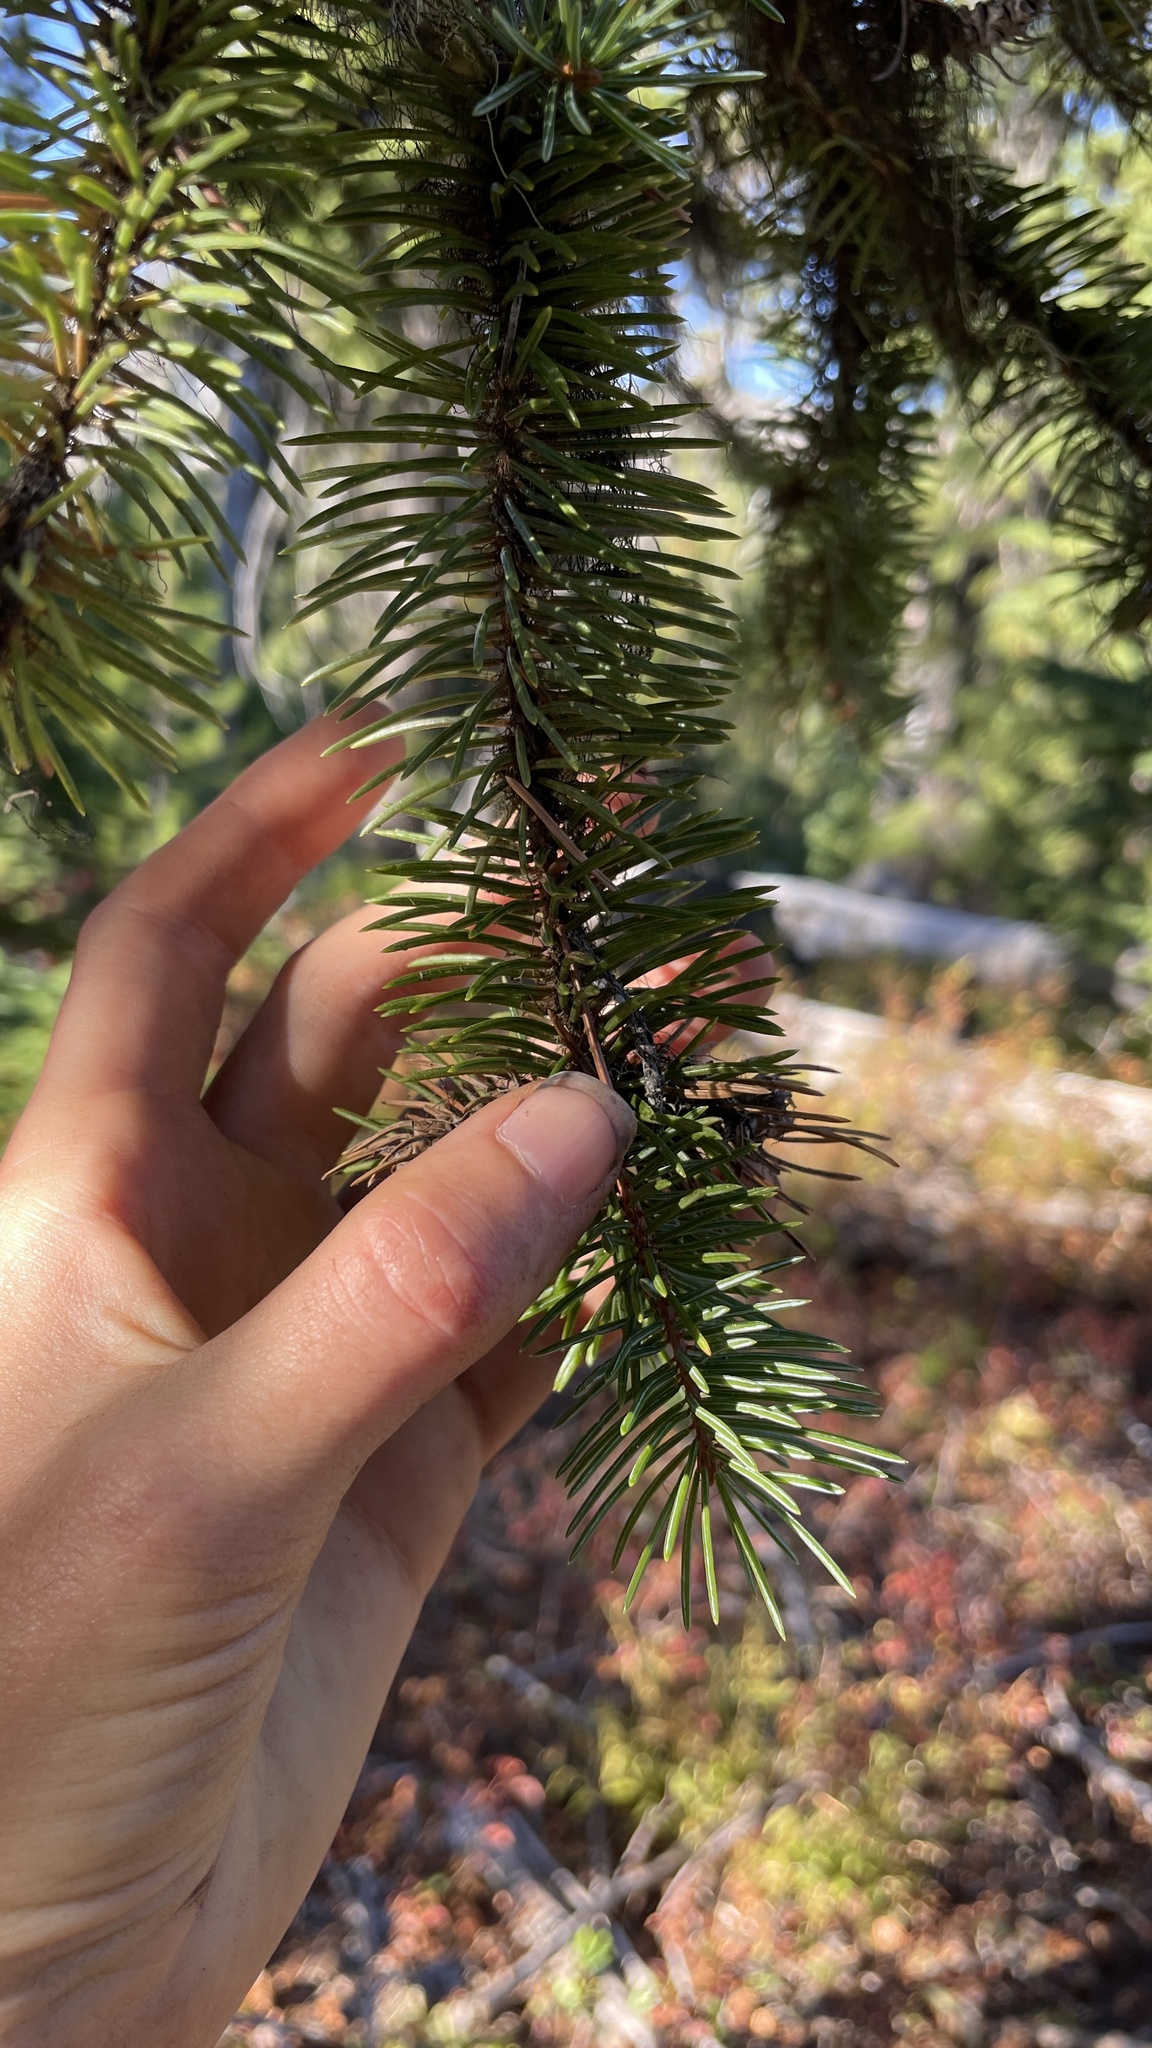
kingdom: Plantae
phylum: Tracheophyta
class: Pinopsida
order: Pinales
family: Pinaceae
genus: Picea
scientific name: Picea engelmannii
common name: Engelmann spruce
